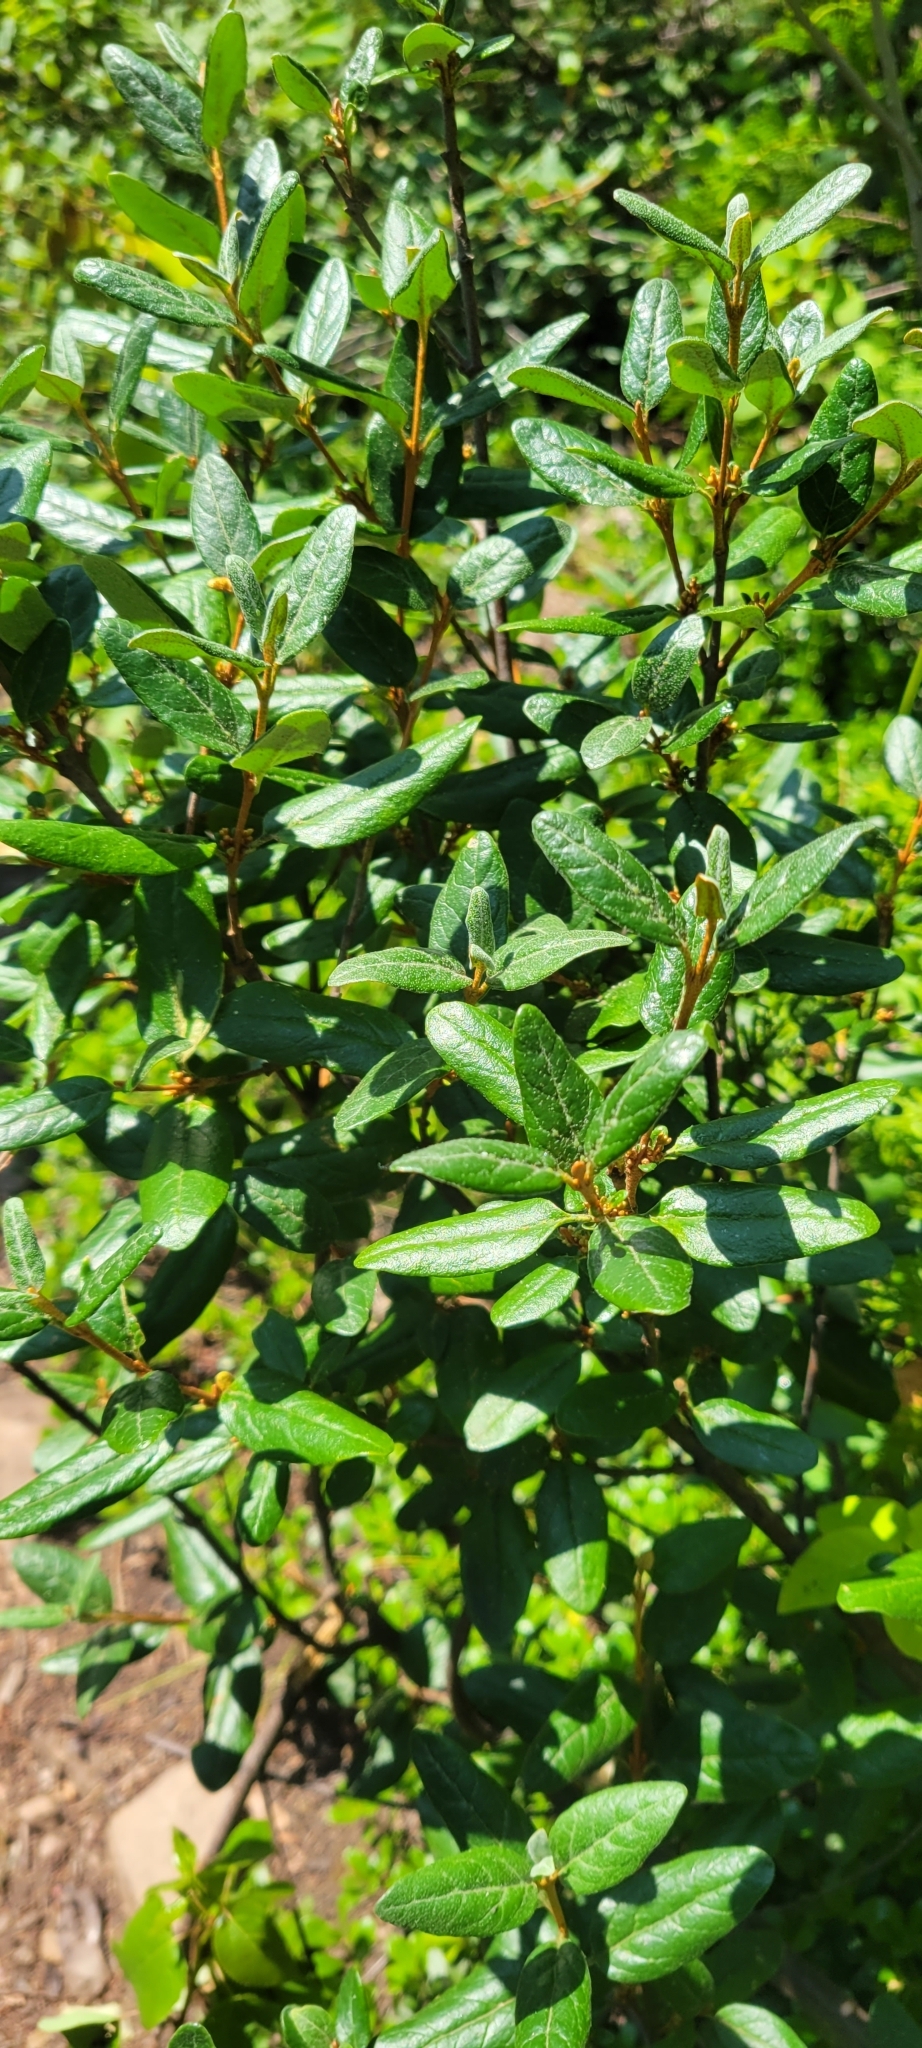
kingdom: Plantae
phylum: Tracheophyta
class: Magnoliopsida
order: Rosales
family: Elaeagnaceae
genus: Shepherdia
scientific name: Shepherdia canadensis
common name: Soapberry
